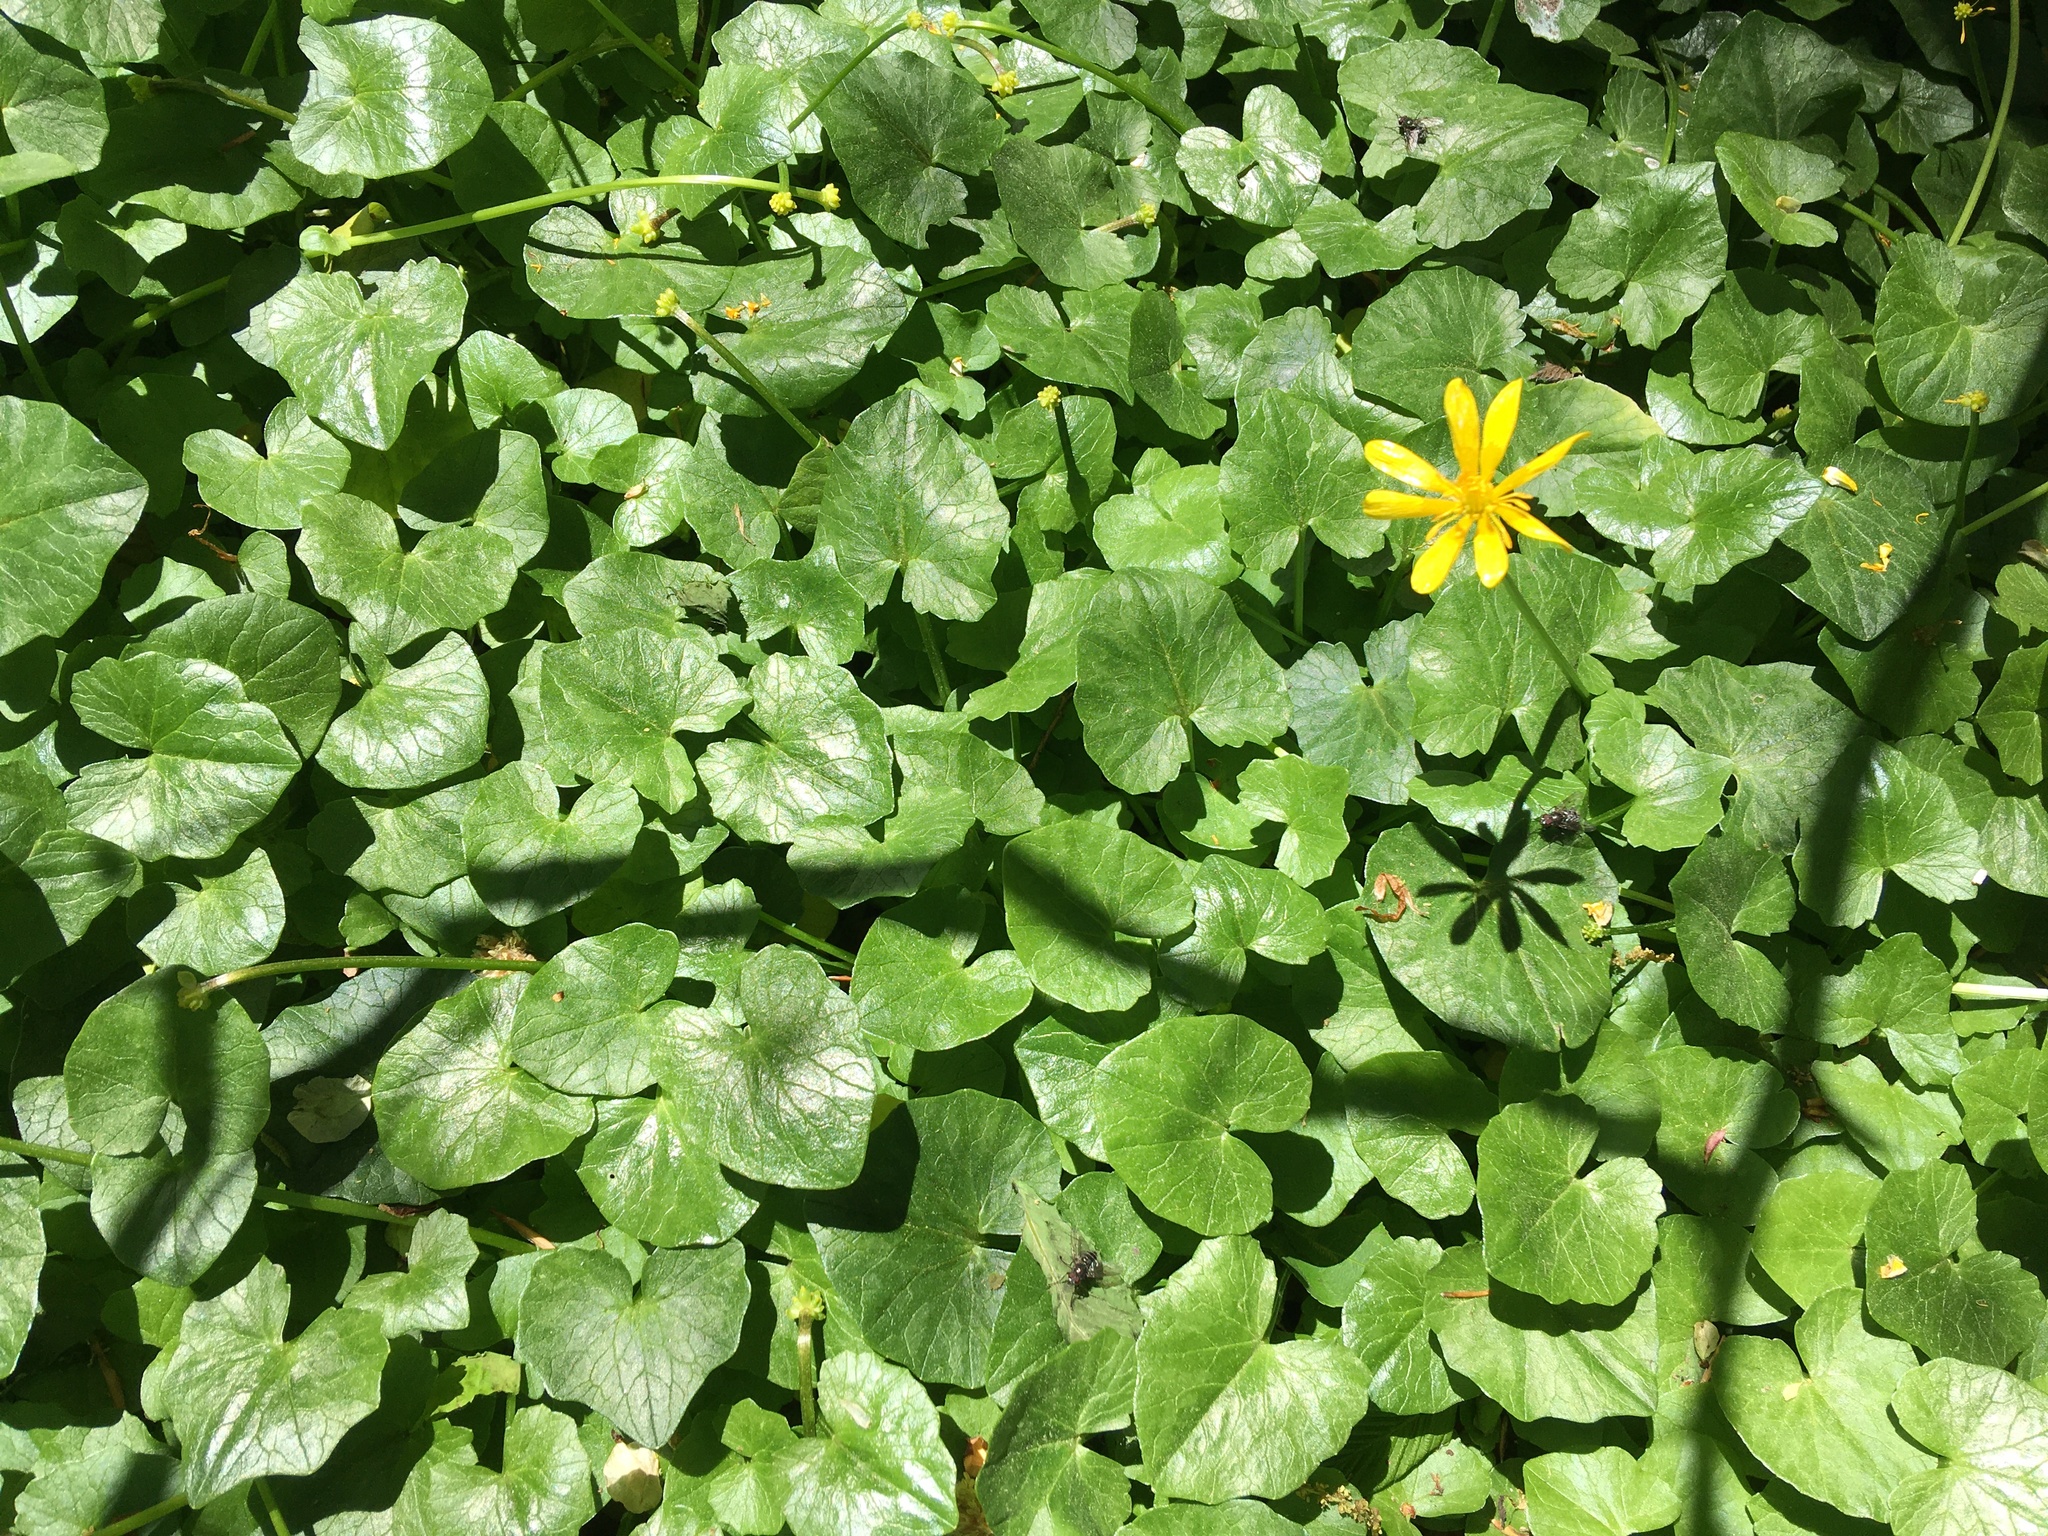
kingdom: Plantae
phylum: Tracheophyta
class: Magnoliopsida
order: Ranunculales
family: Ranunculaceae
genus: Ficaria
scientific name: Ficaria verna
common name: Lesser celandine
